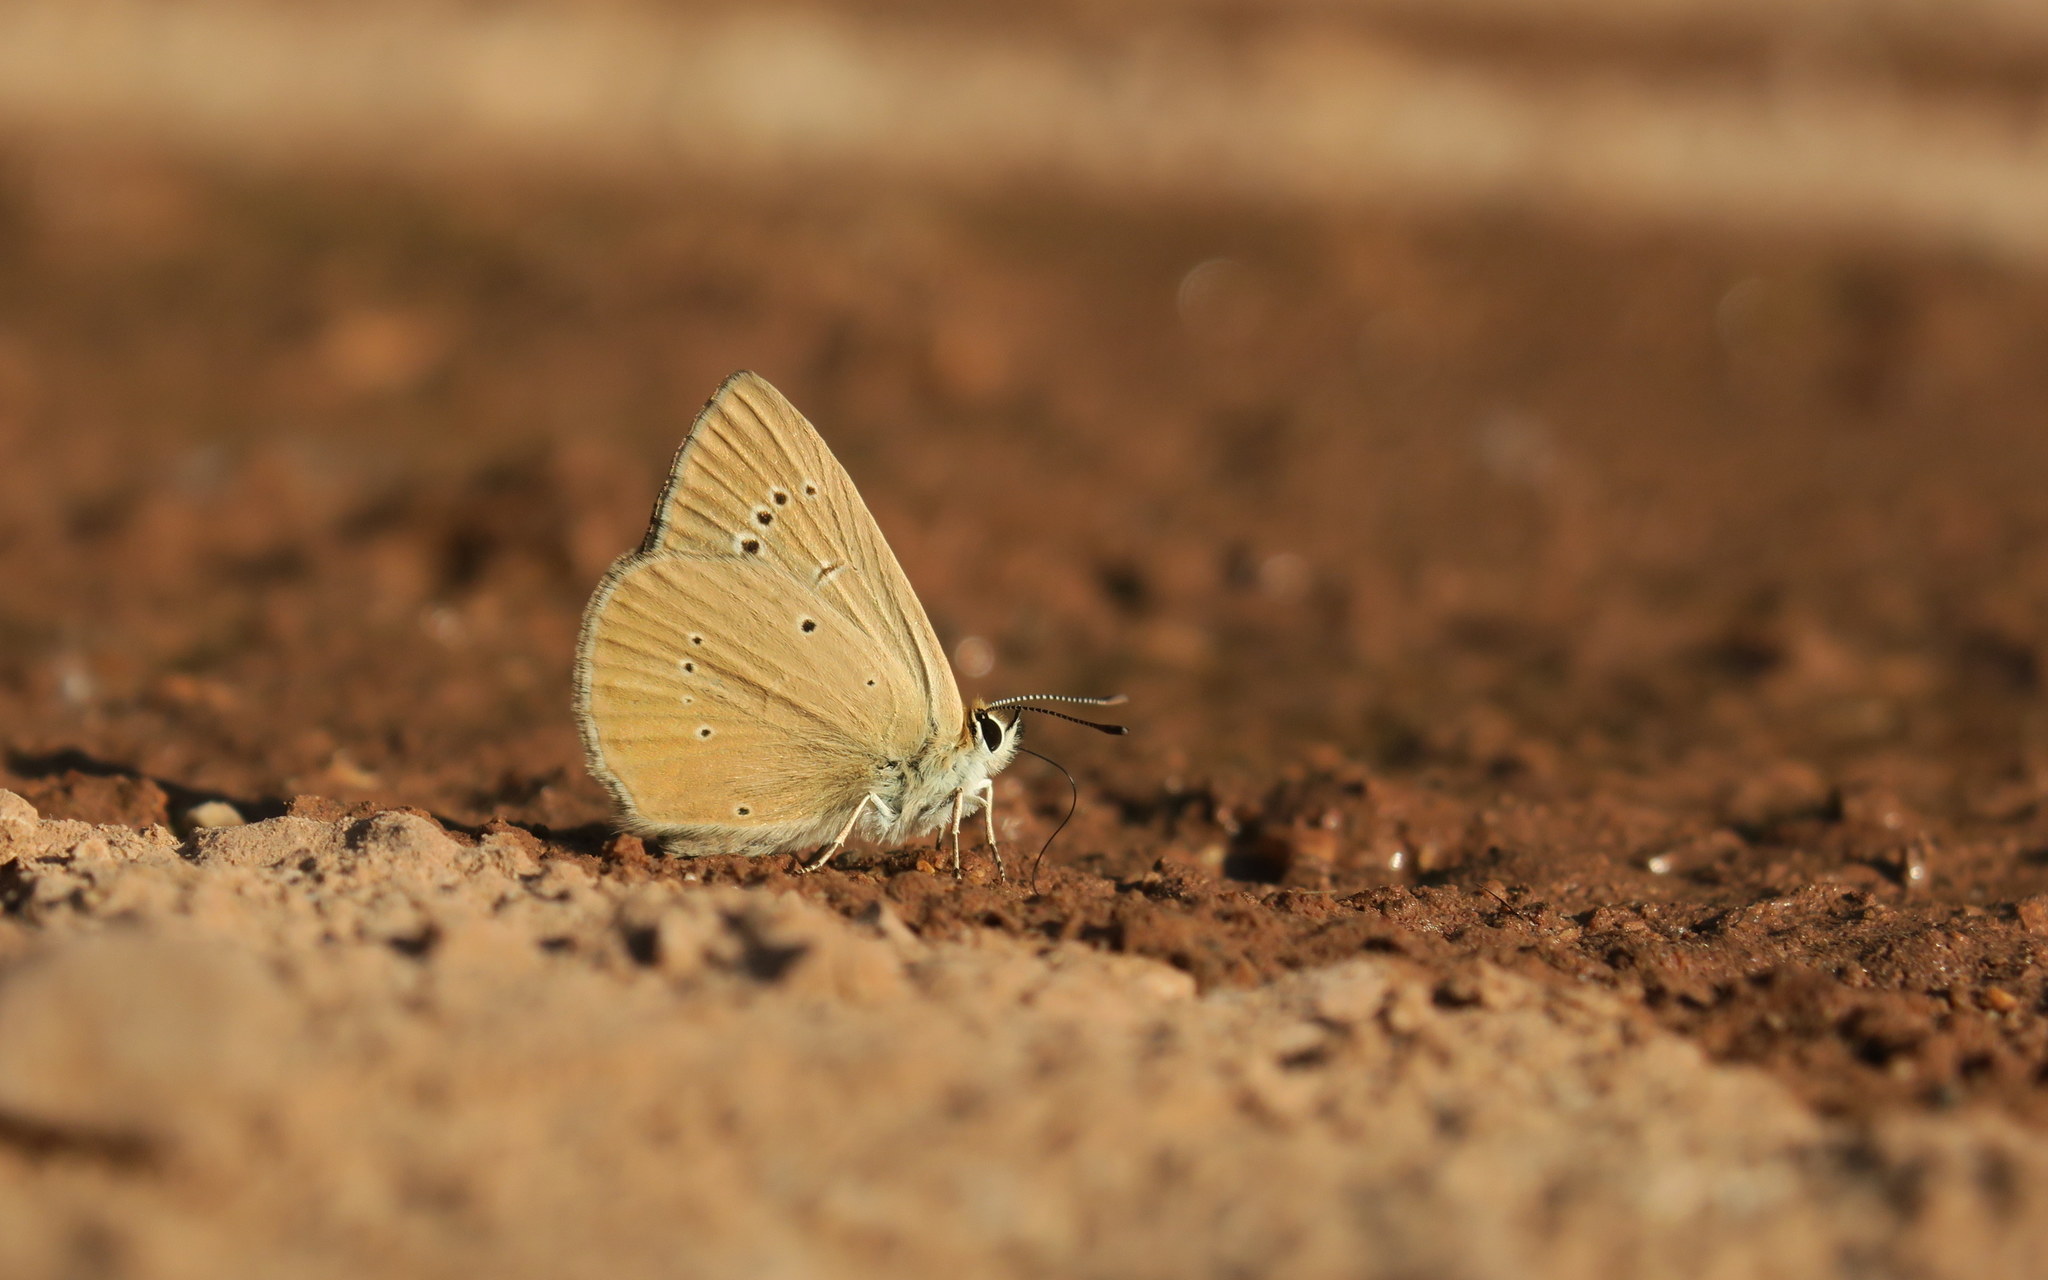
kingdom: Animalia
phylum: Arthropoda
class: Insecta
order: Lepidoptera
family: Lycaenidae
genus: Agrodiaetus
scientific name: Agrodiaetus ripartii
